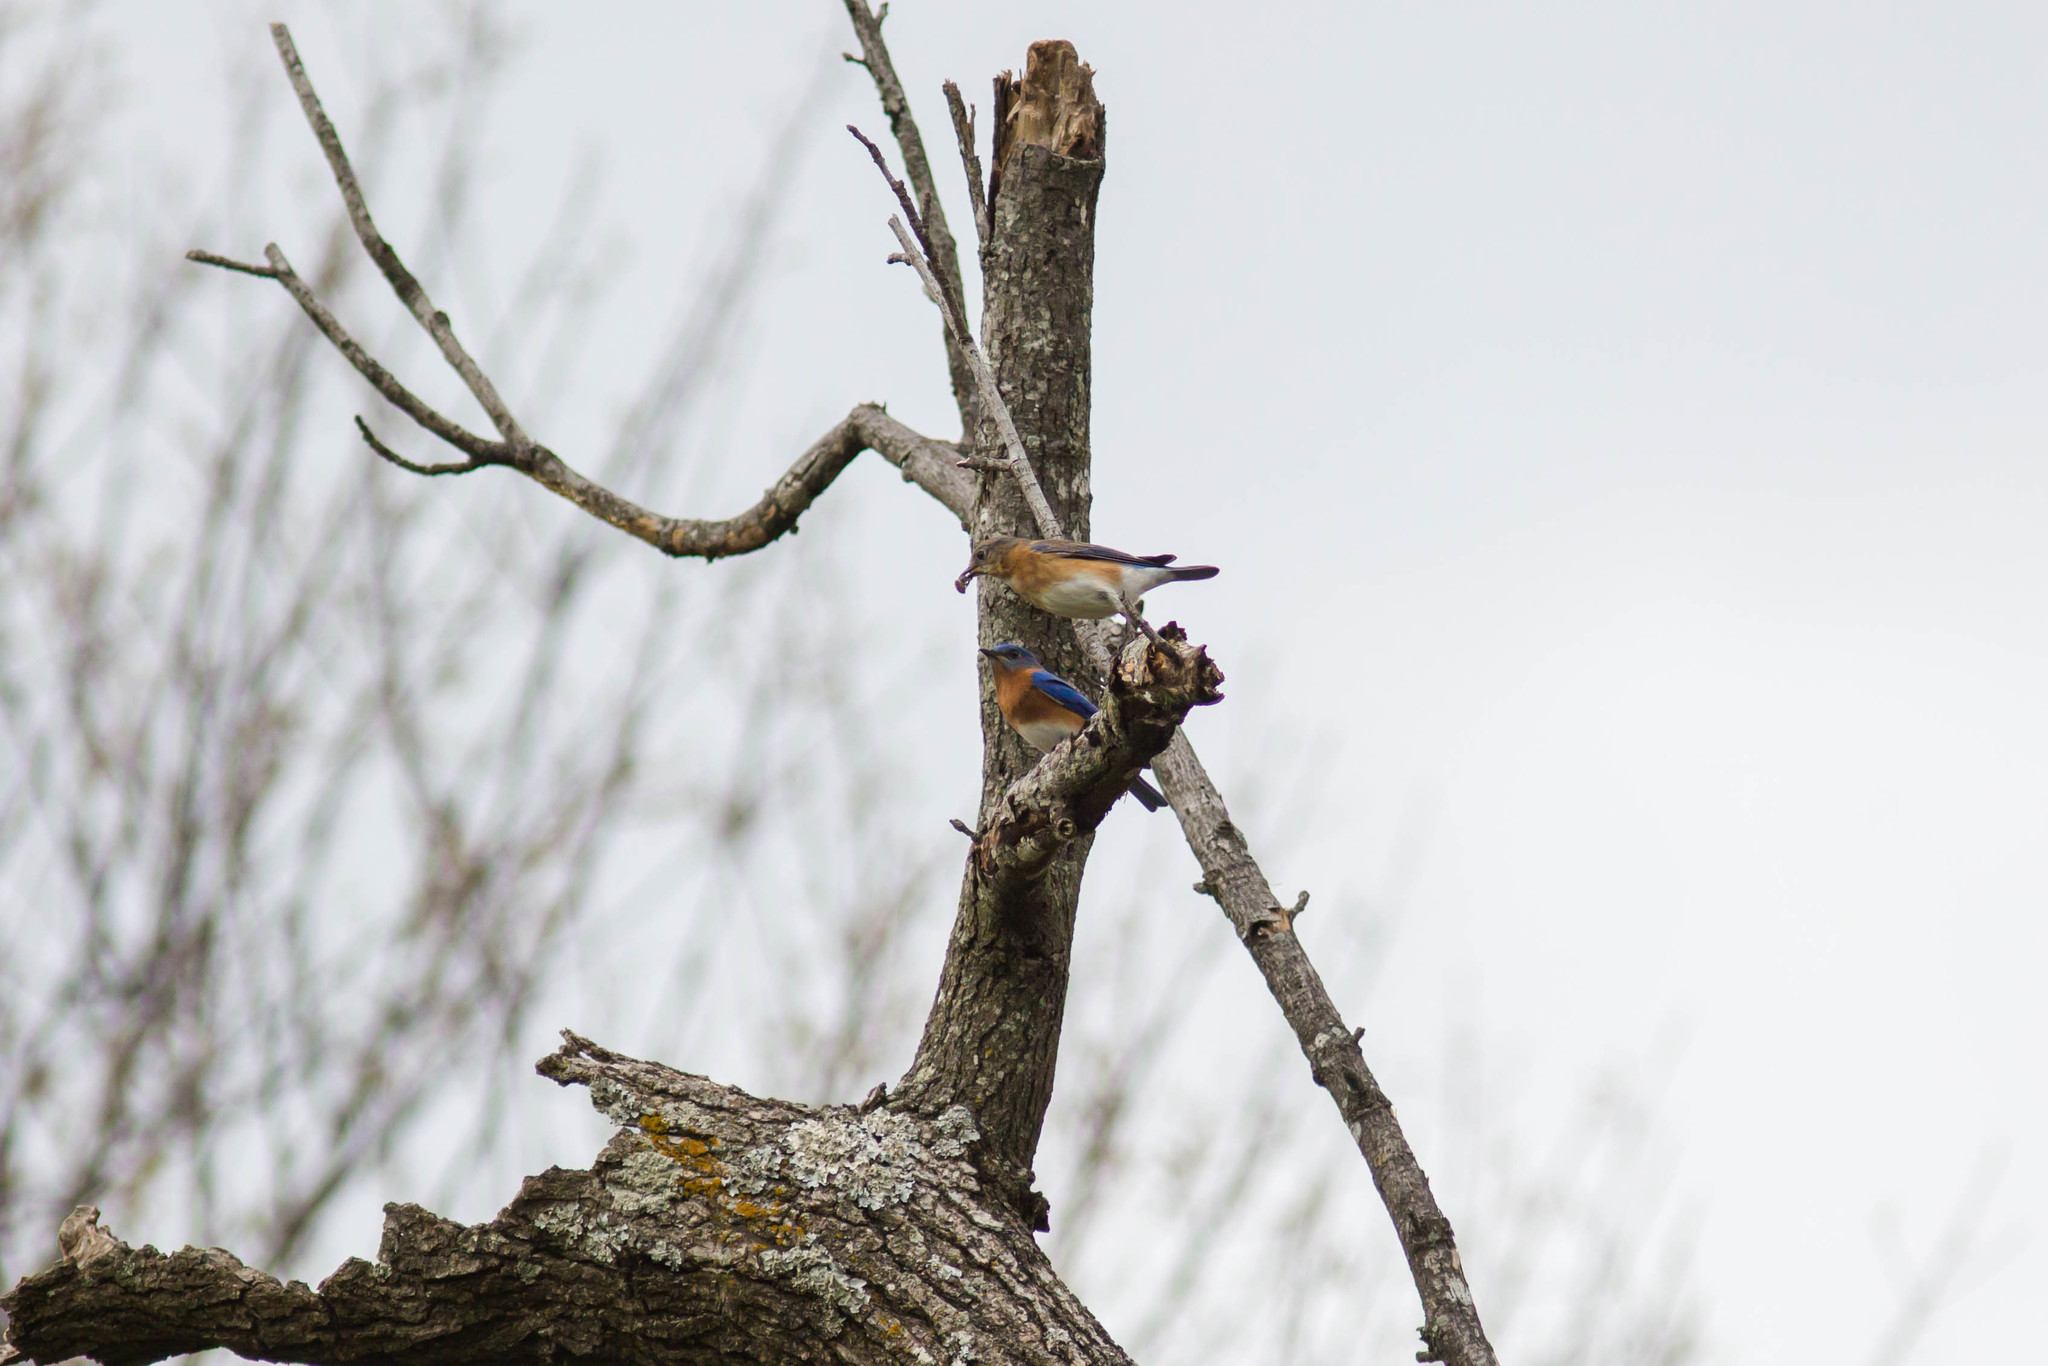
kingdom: Animalia
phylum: Chordata
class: Aves
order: Passeriformes
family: Turdidae
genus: Sialia
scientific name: Sialia sialis
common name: Eastern bluebird
